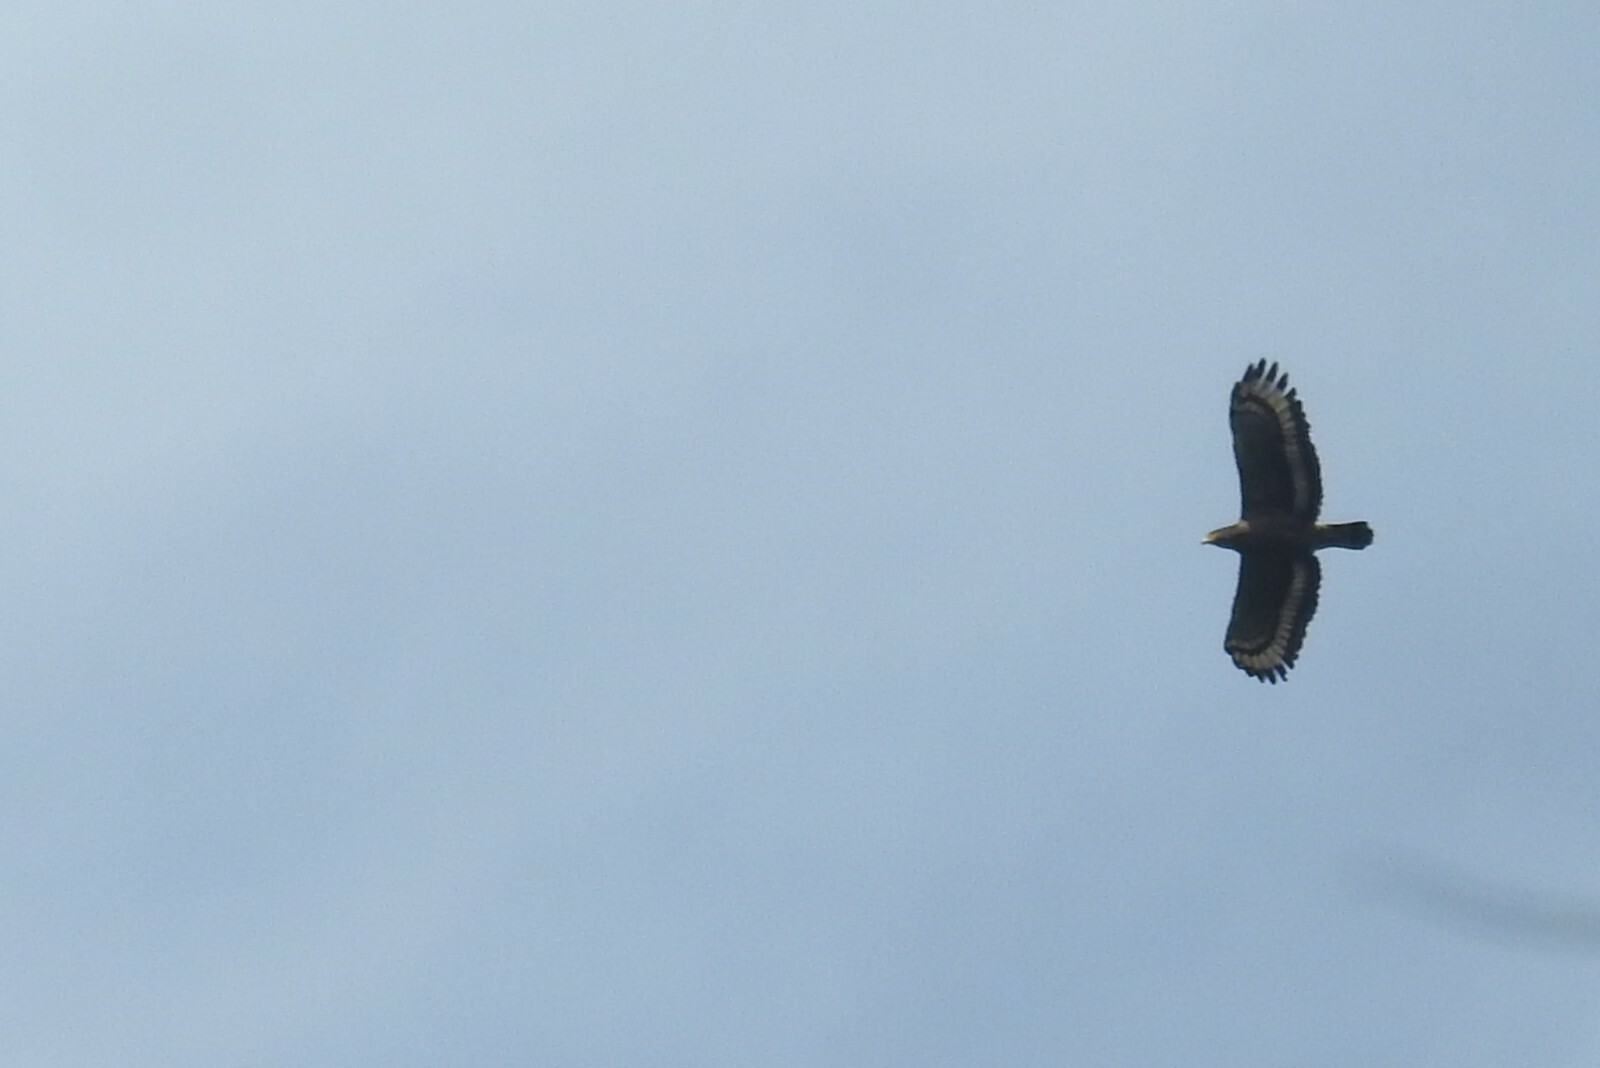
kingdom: Animalia
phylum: Chordata
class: Aves
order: Accipitriformes
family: Accipitridae
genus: Spilornis
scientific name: Spilornis cheela
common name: Crested serpent eagle
